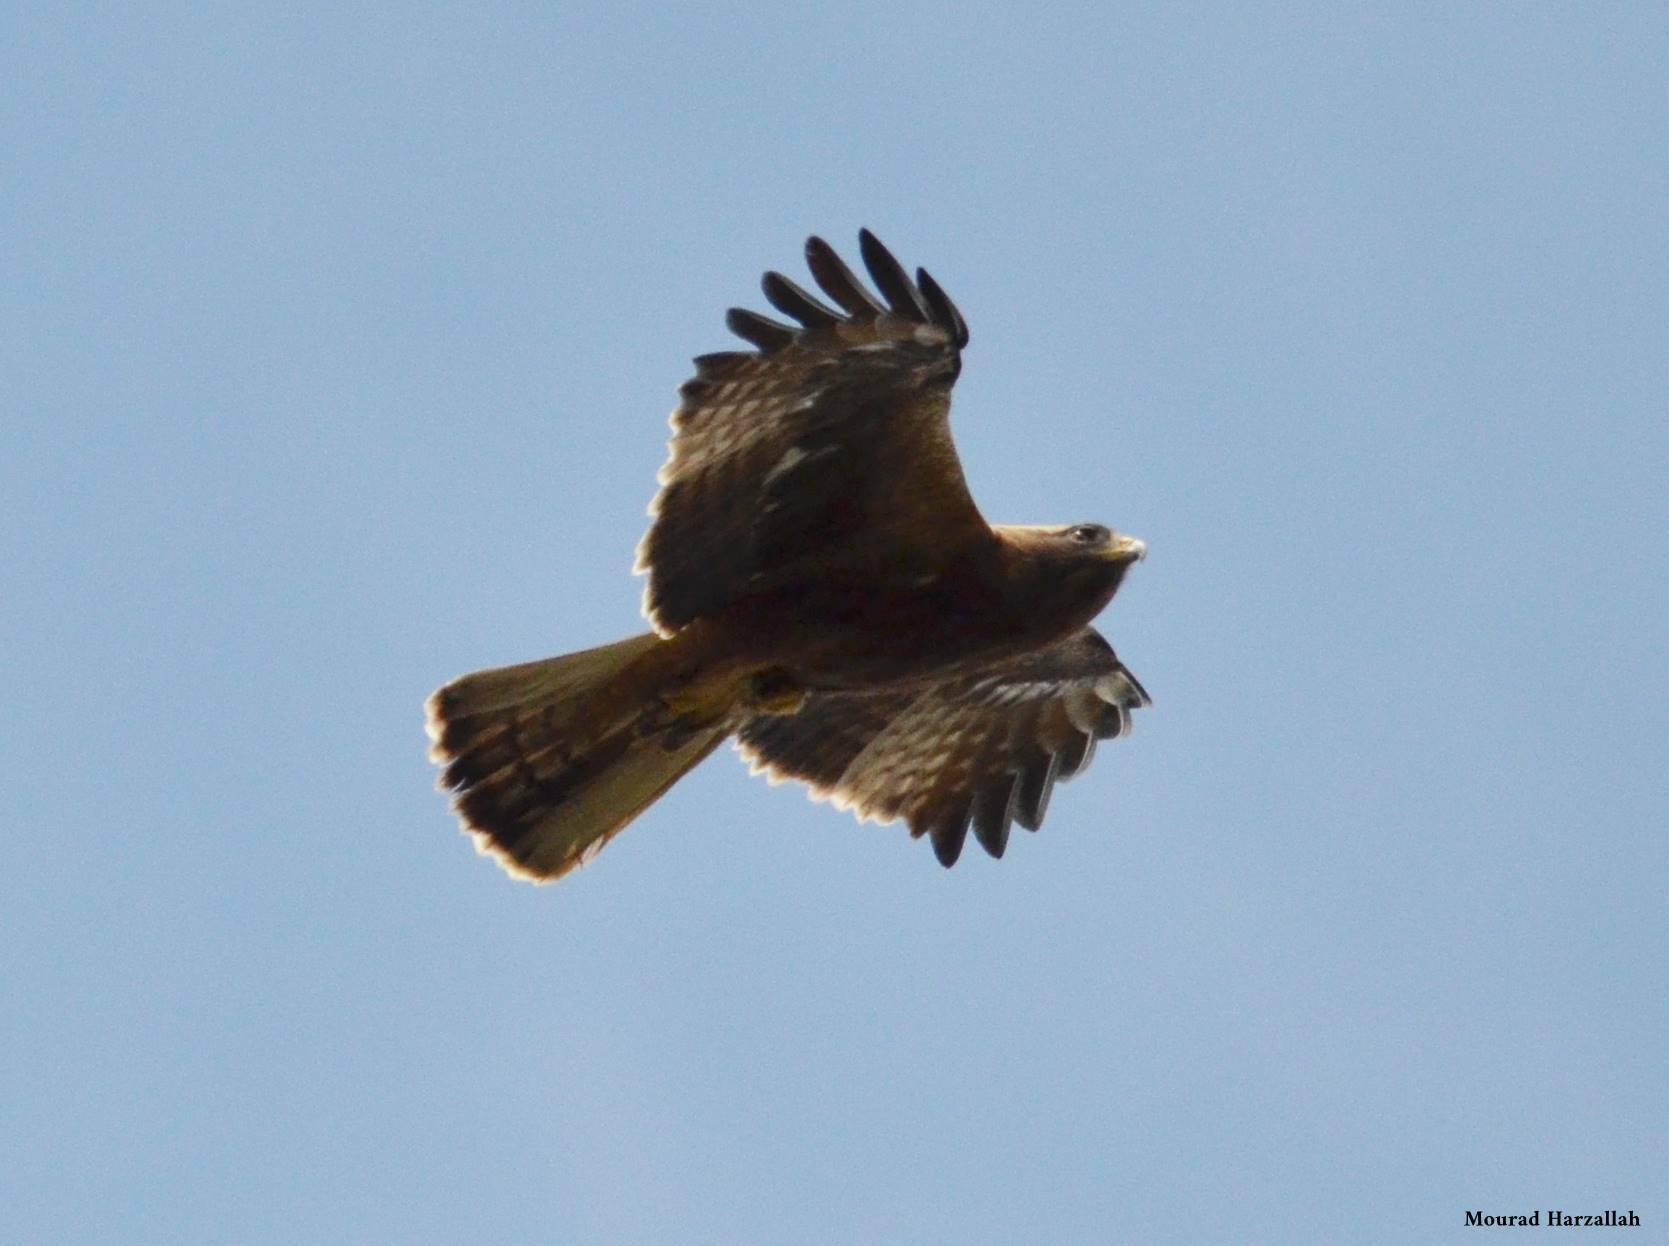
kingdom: Animalia
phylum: Chordata
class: Aves
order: Accipitriformes
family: Accipitridae
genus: Hieraaetus
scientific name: Hieraaetus pennatus
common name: Booted eagle
